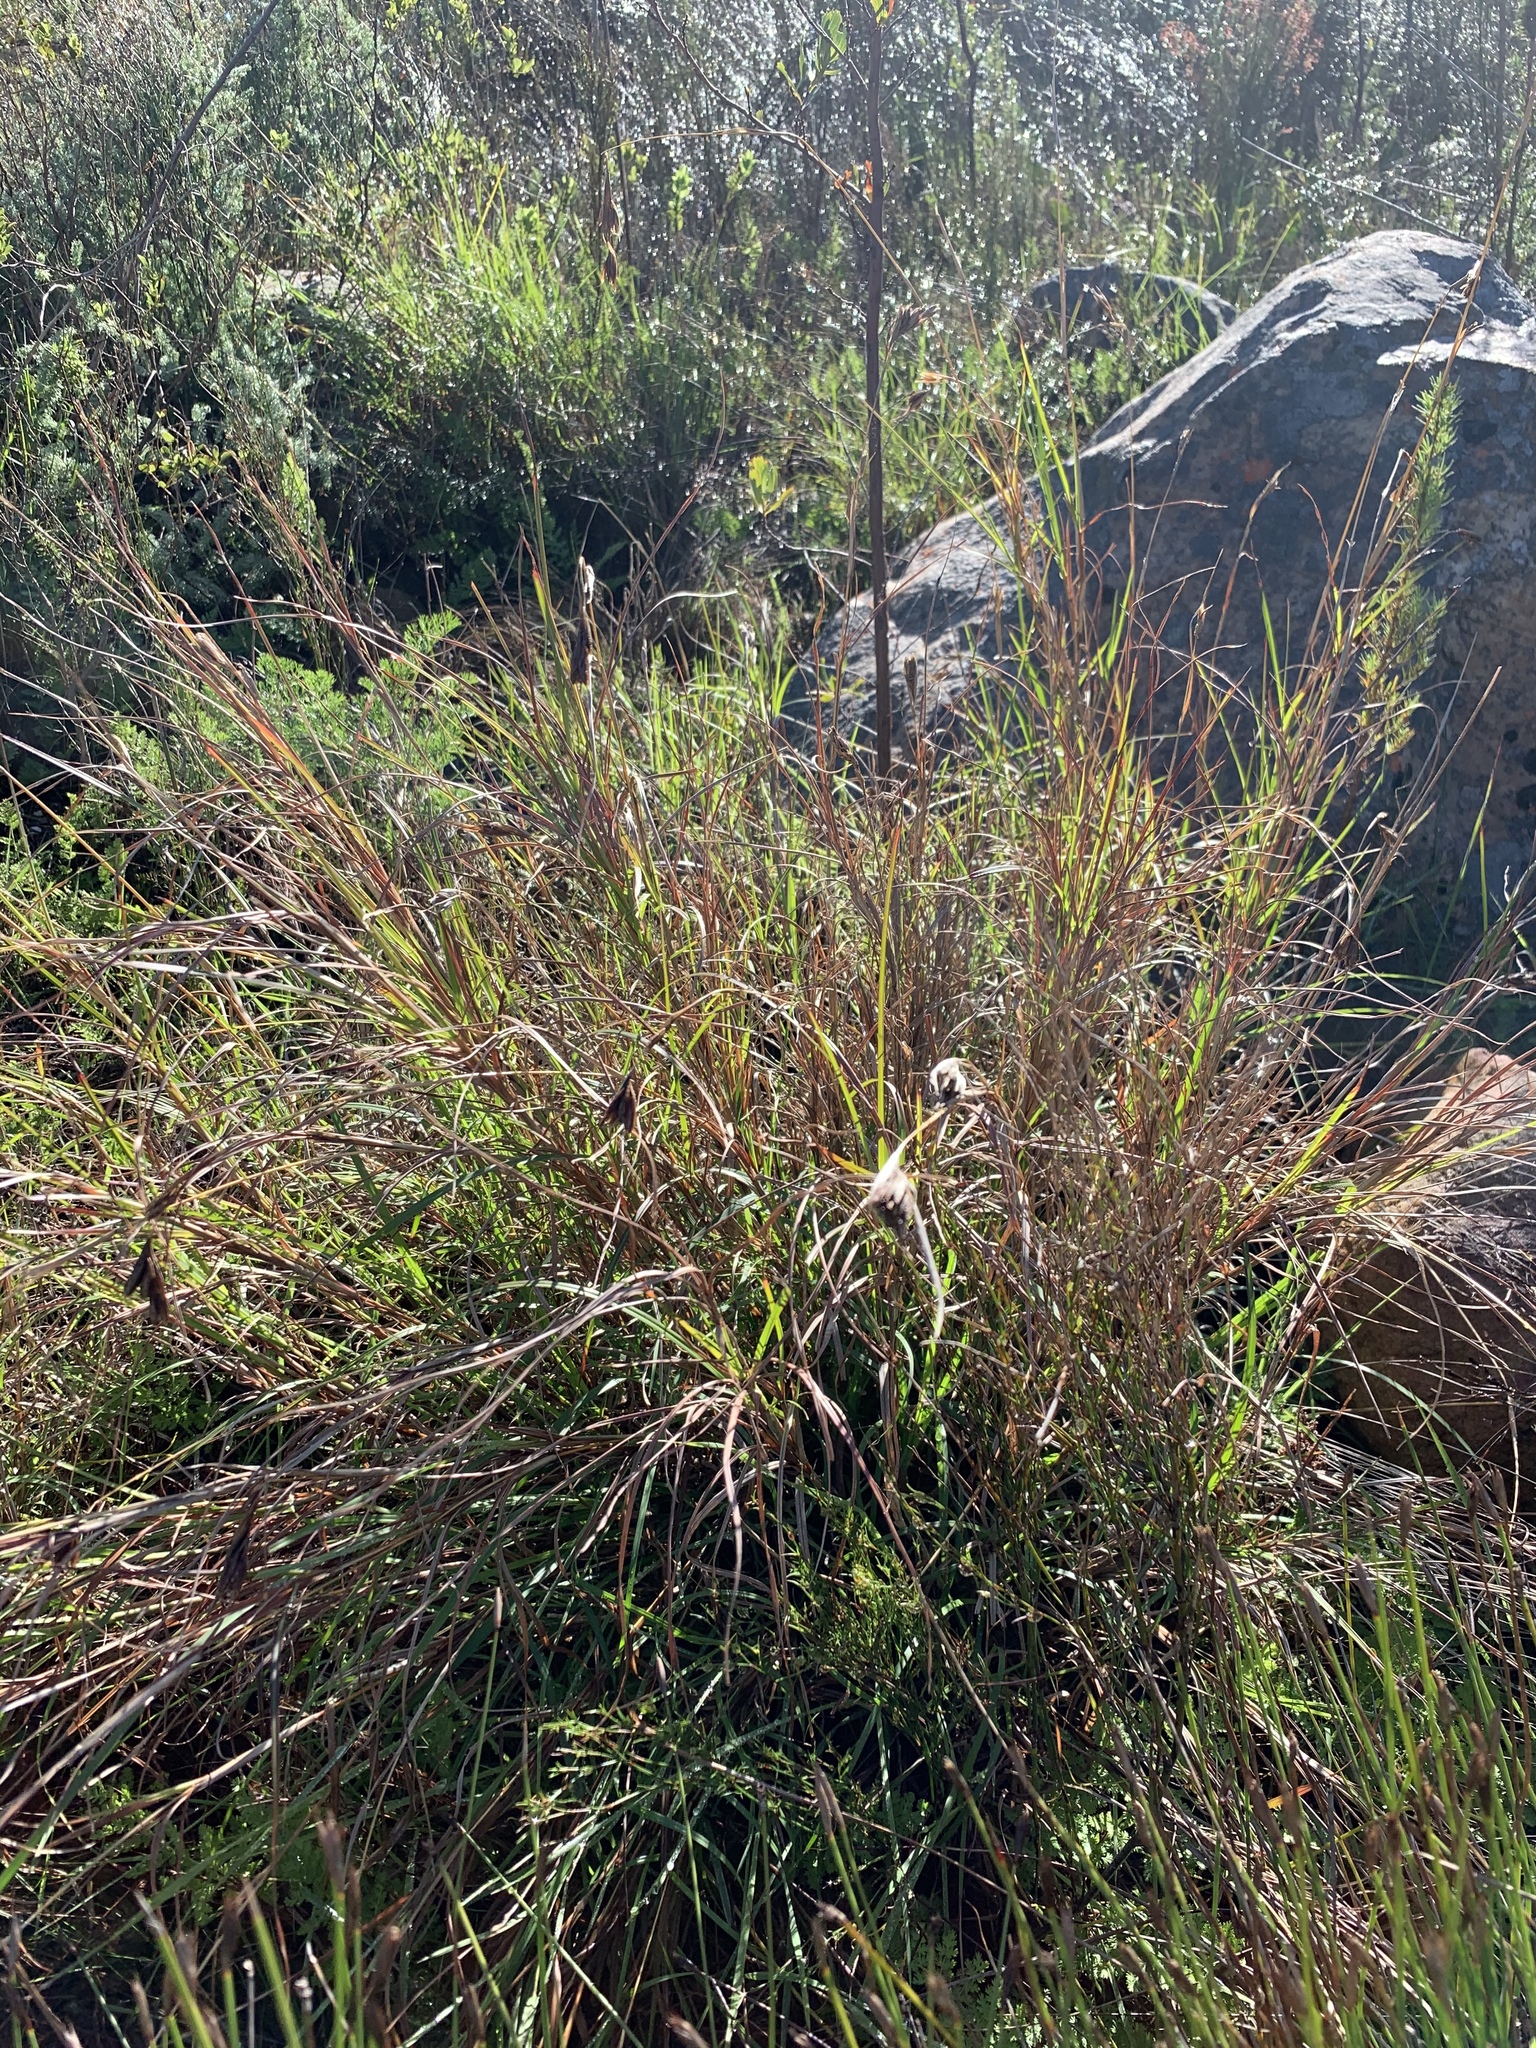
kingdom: Plantae
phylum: Tracheophyta
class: Liliopsida
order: Poales
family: Poaceae
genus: Themeda
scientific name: Themeda triandra
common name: Kangaroo grass
